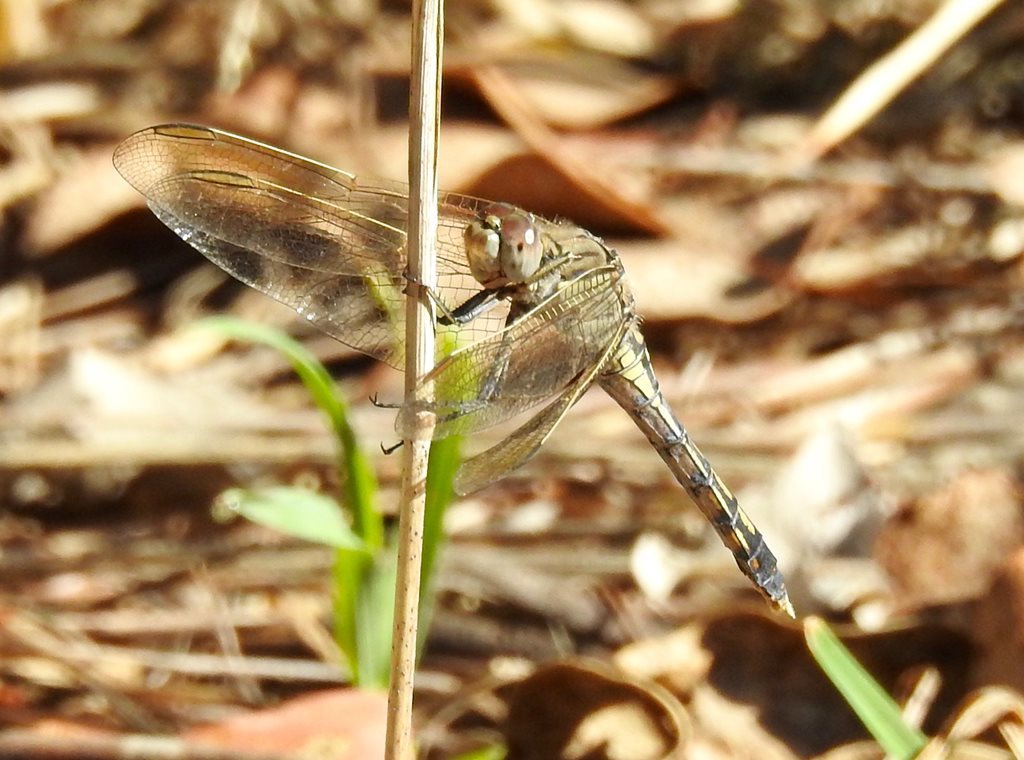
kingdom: Animalia
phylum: Arthropoda
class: Insecta
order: Odonata
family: Libellulidae
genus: Orthetrum
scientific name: Orthetrum caledonicum
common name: Blue skimmer
